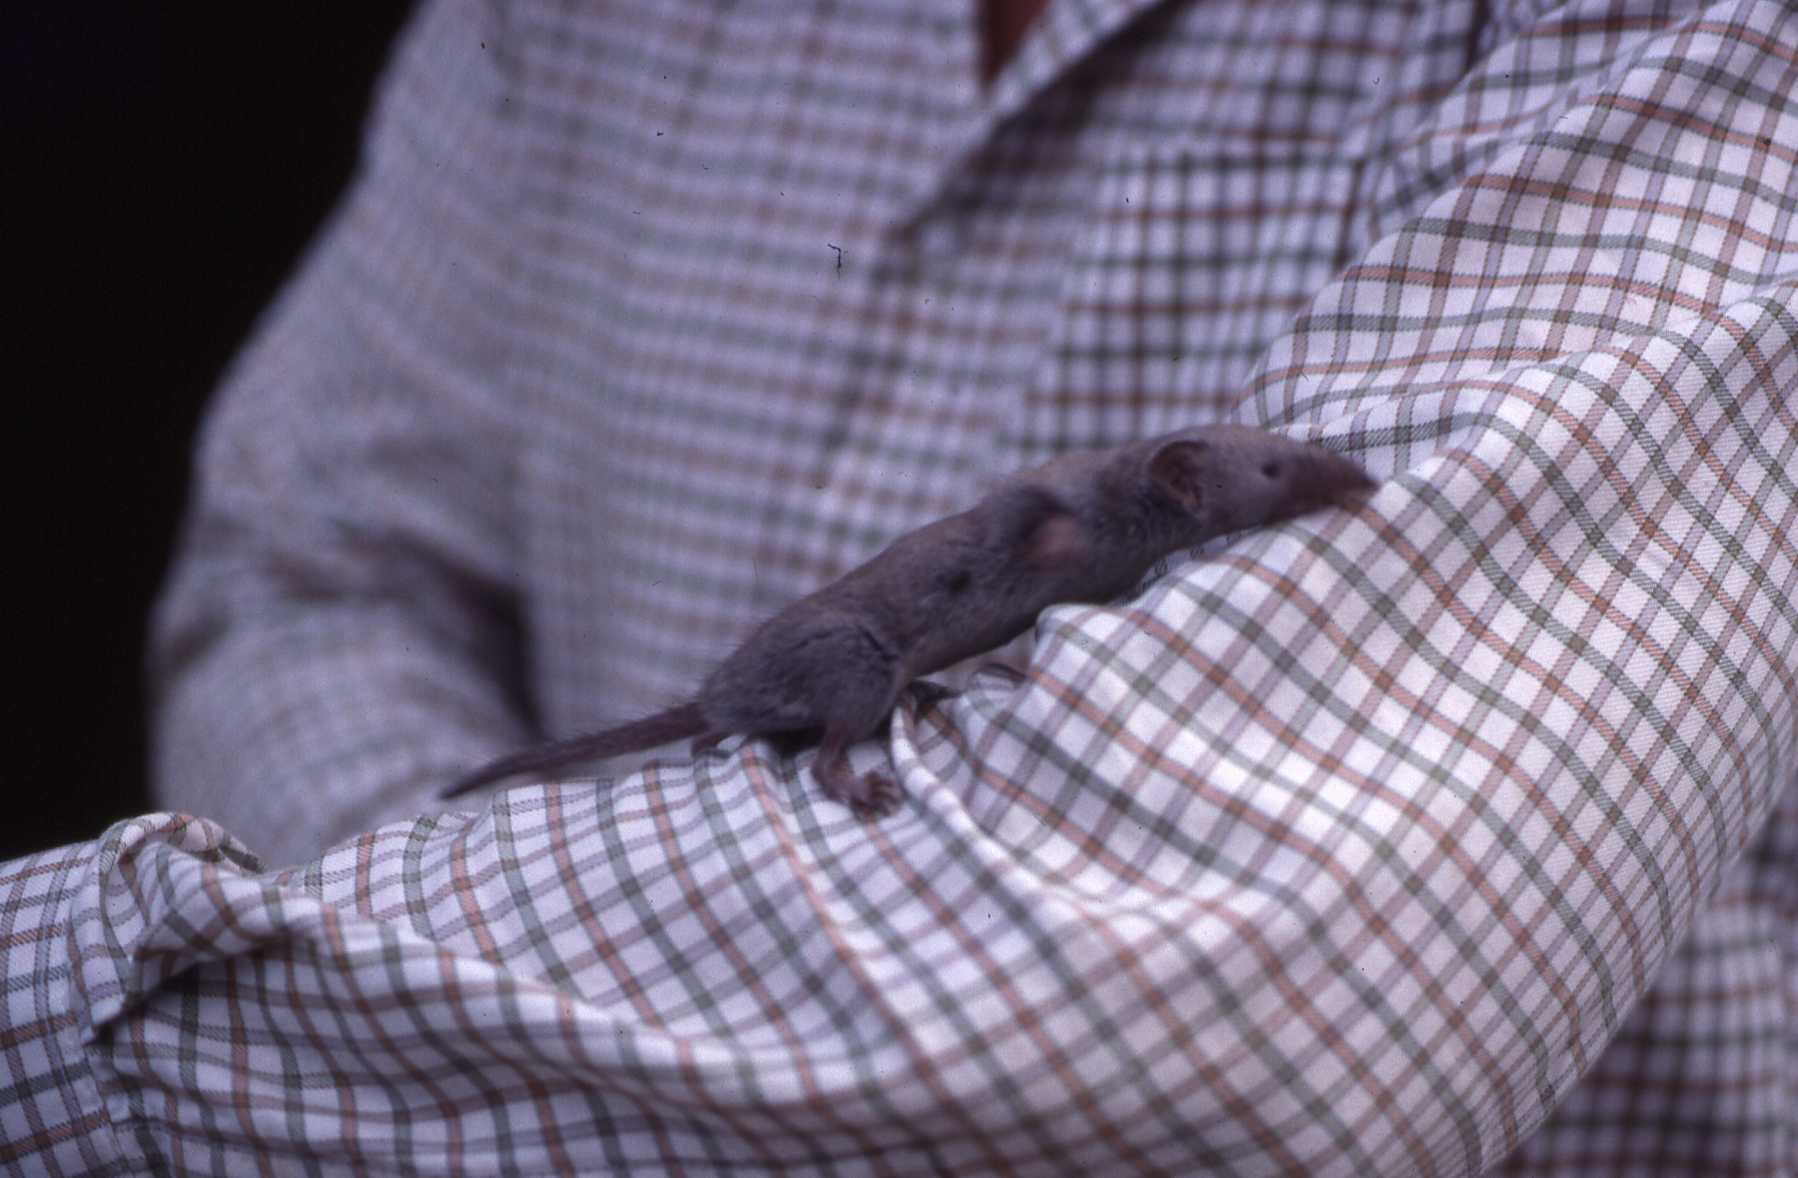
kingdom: Animalia
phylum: Chordata
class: Mammalia
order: Soricomorpha
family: Soricidae
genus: Suncus
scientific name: Suncus murinus
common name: Asian house shrew
